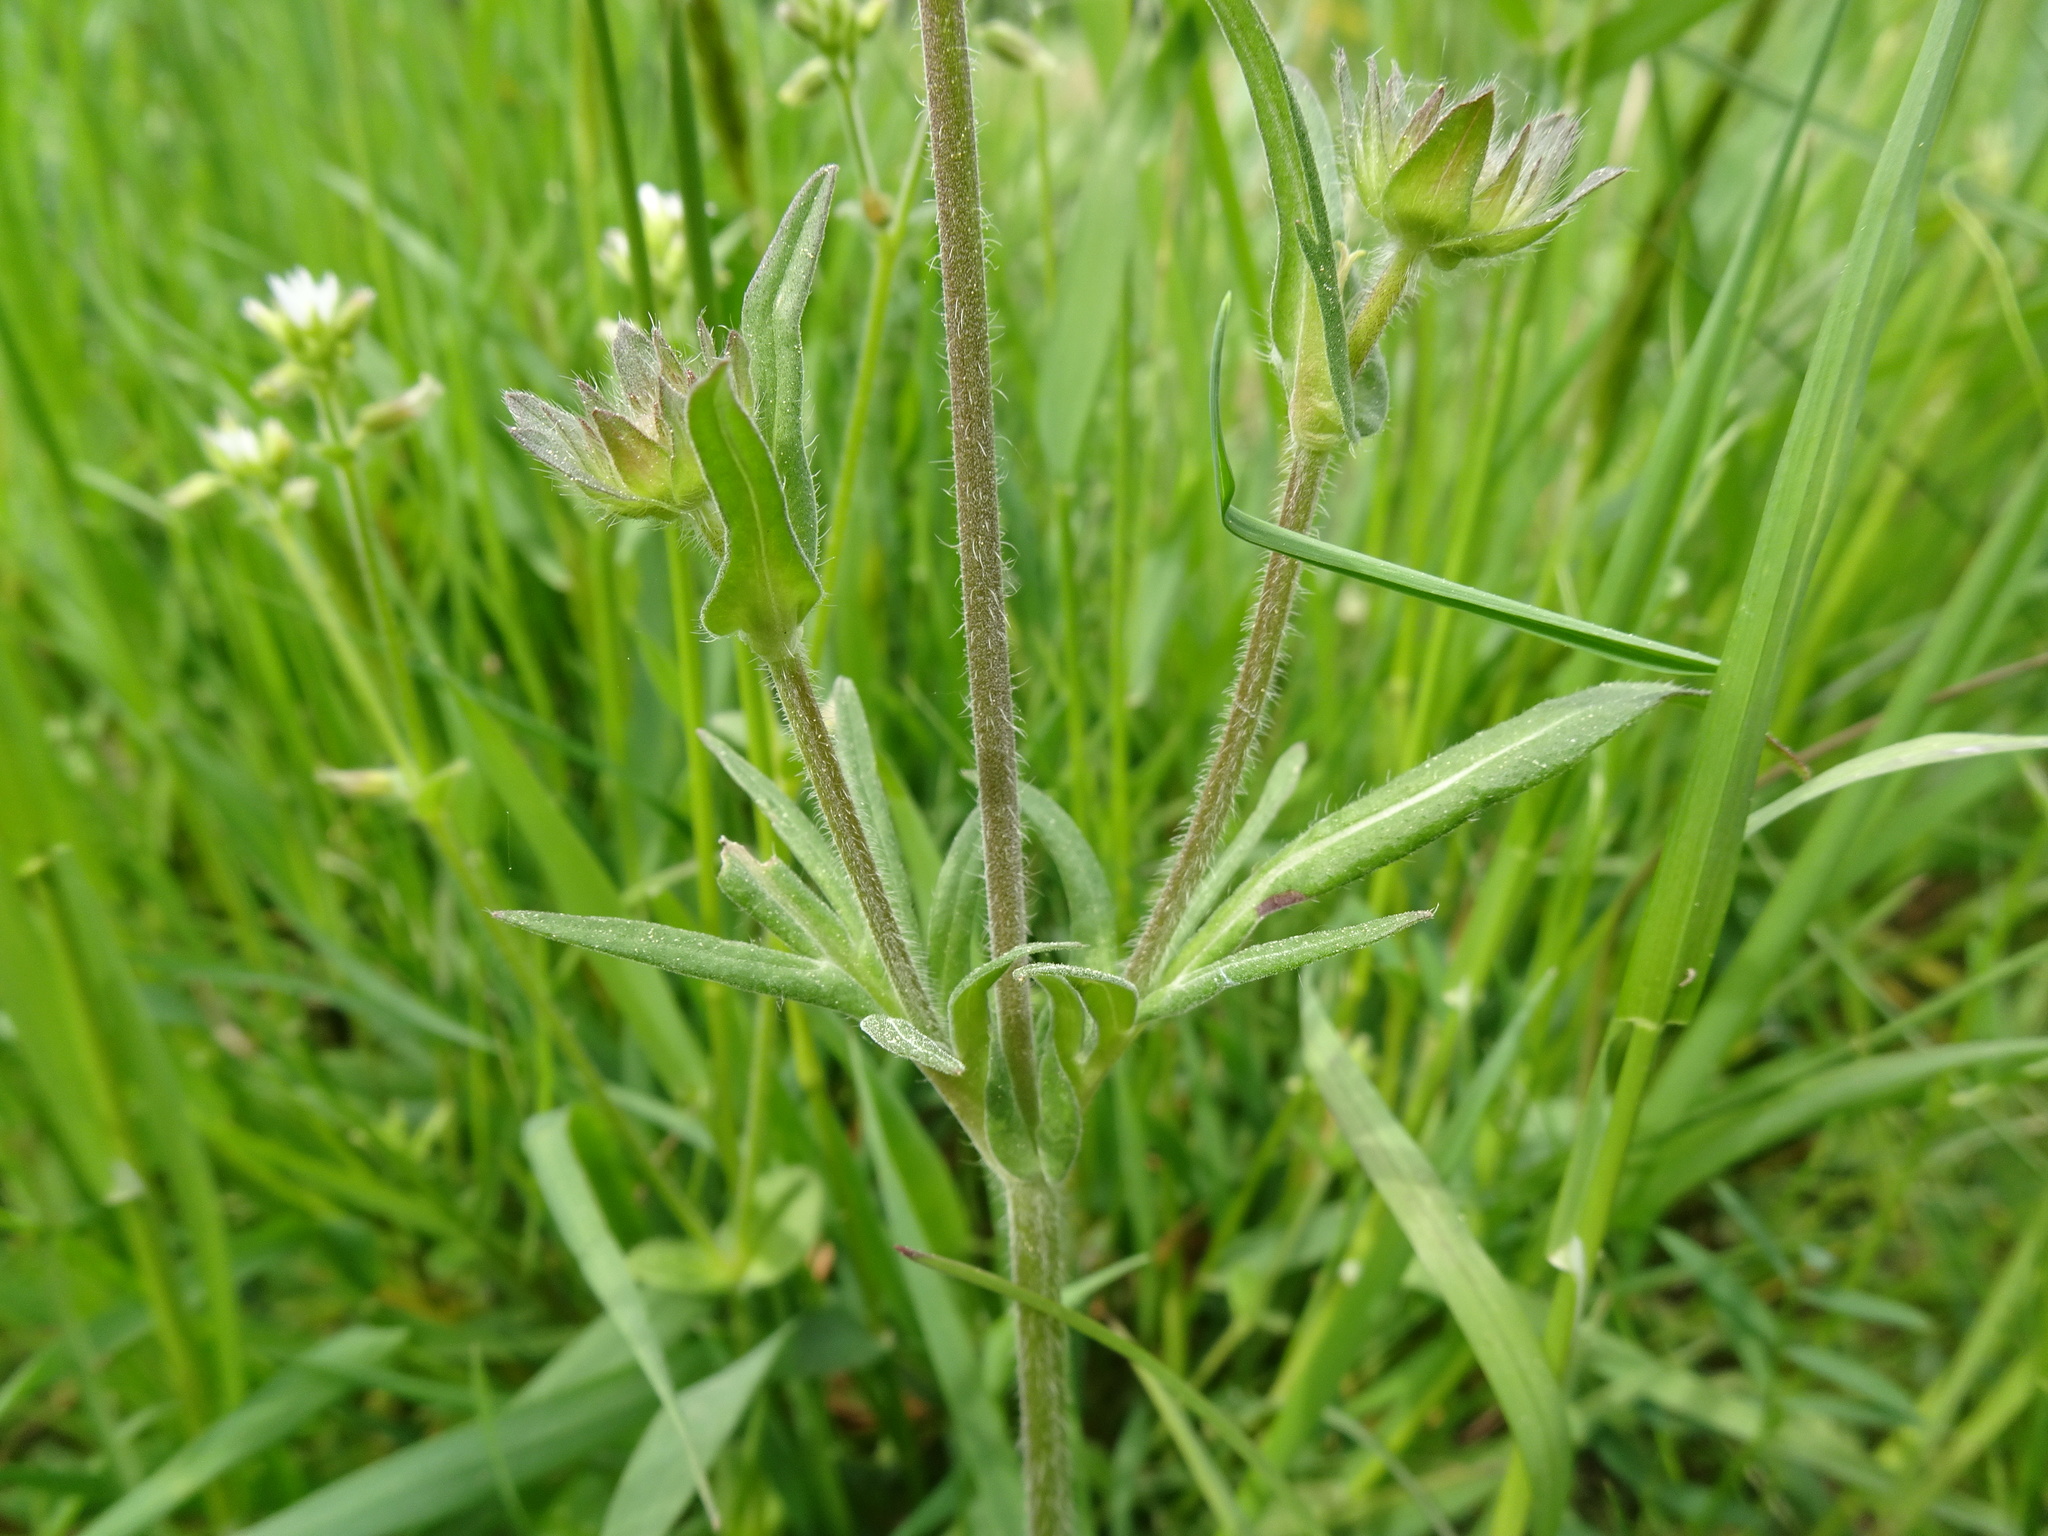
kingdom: Plantae
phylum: Tracheophyta
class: Magnoliopsida
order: Dipsacales
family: Caprifoliaceae
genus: Knautia
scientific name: Knautia arvensis
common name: Field scabiosa
